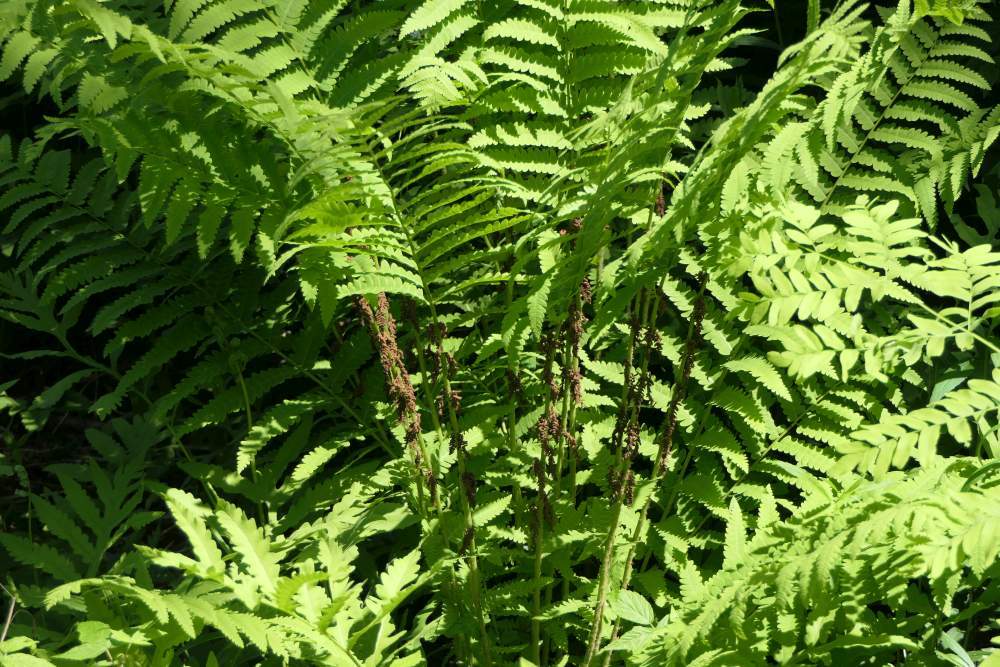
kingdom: Plantae
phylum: Tracheophyta
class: Polypodiopsida
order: Osmundales
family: Osmundaceae
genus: Claytosmunda
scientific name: Claytosmunda claytoniana
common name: Clayton's fern
